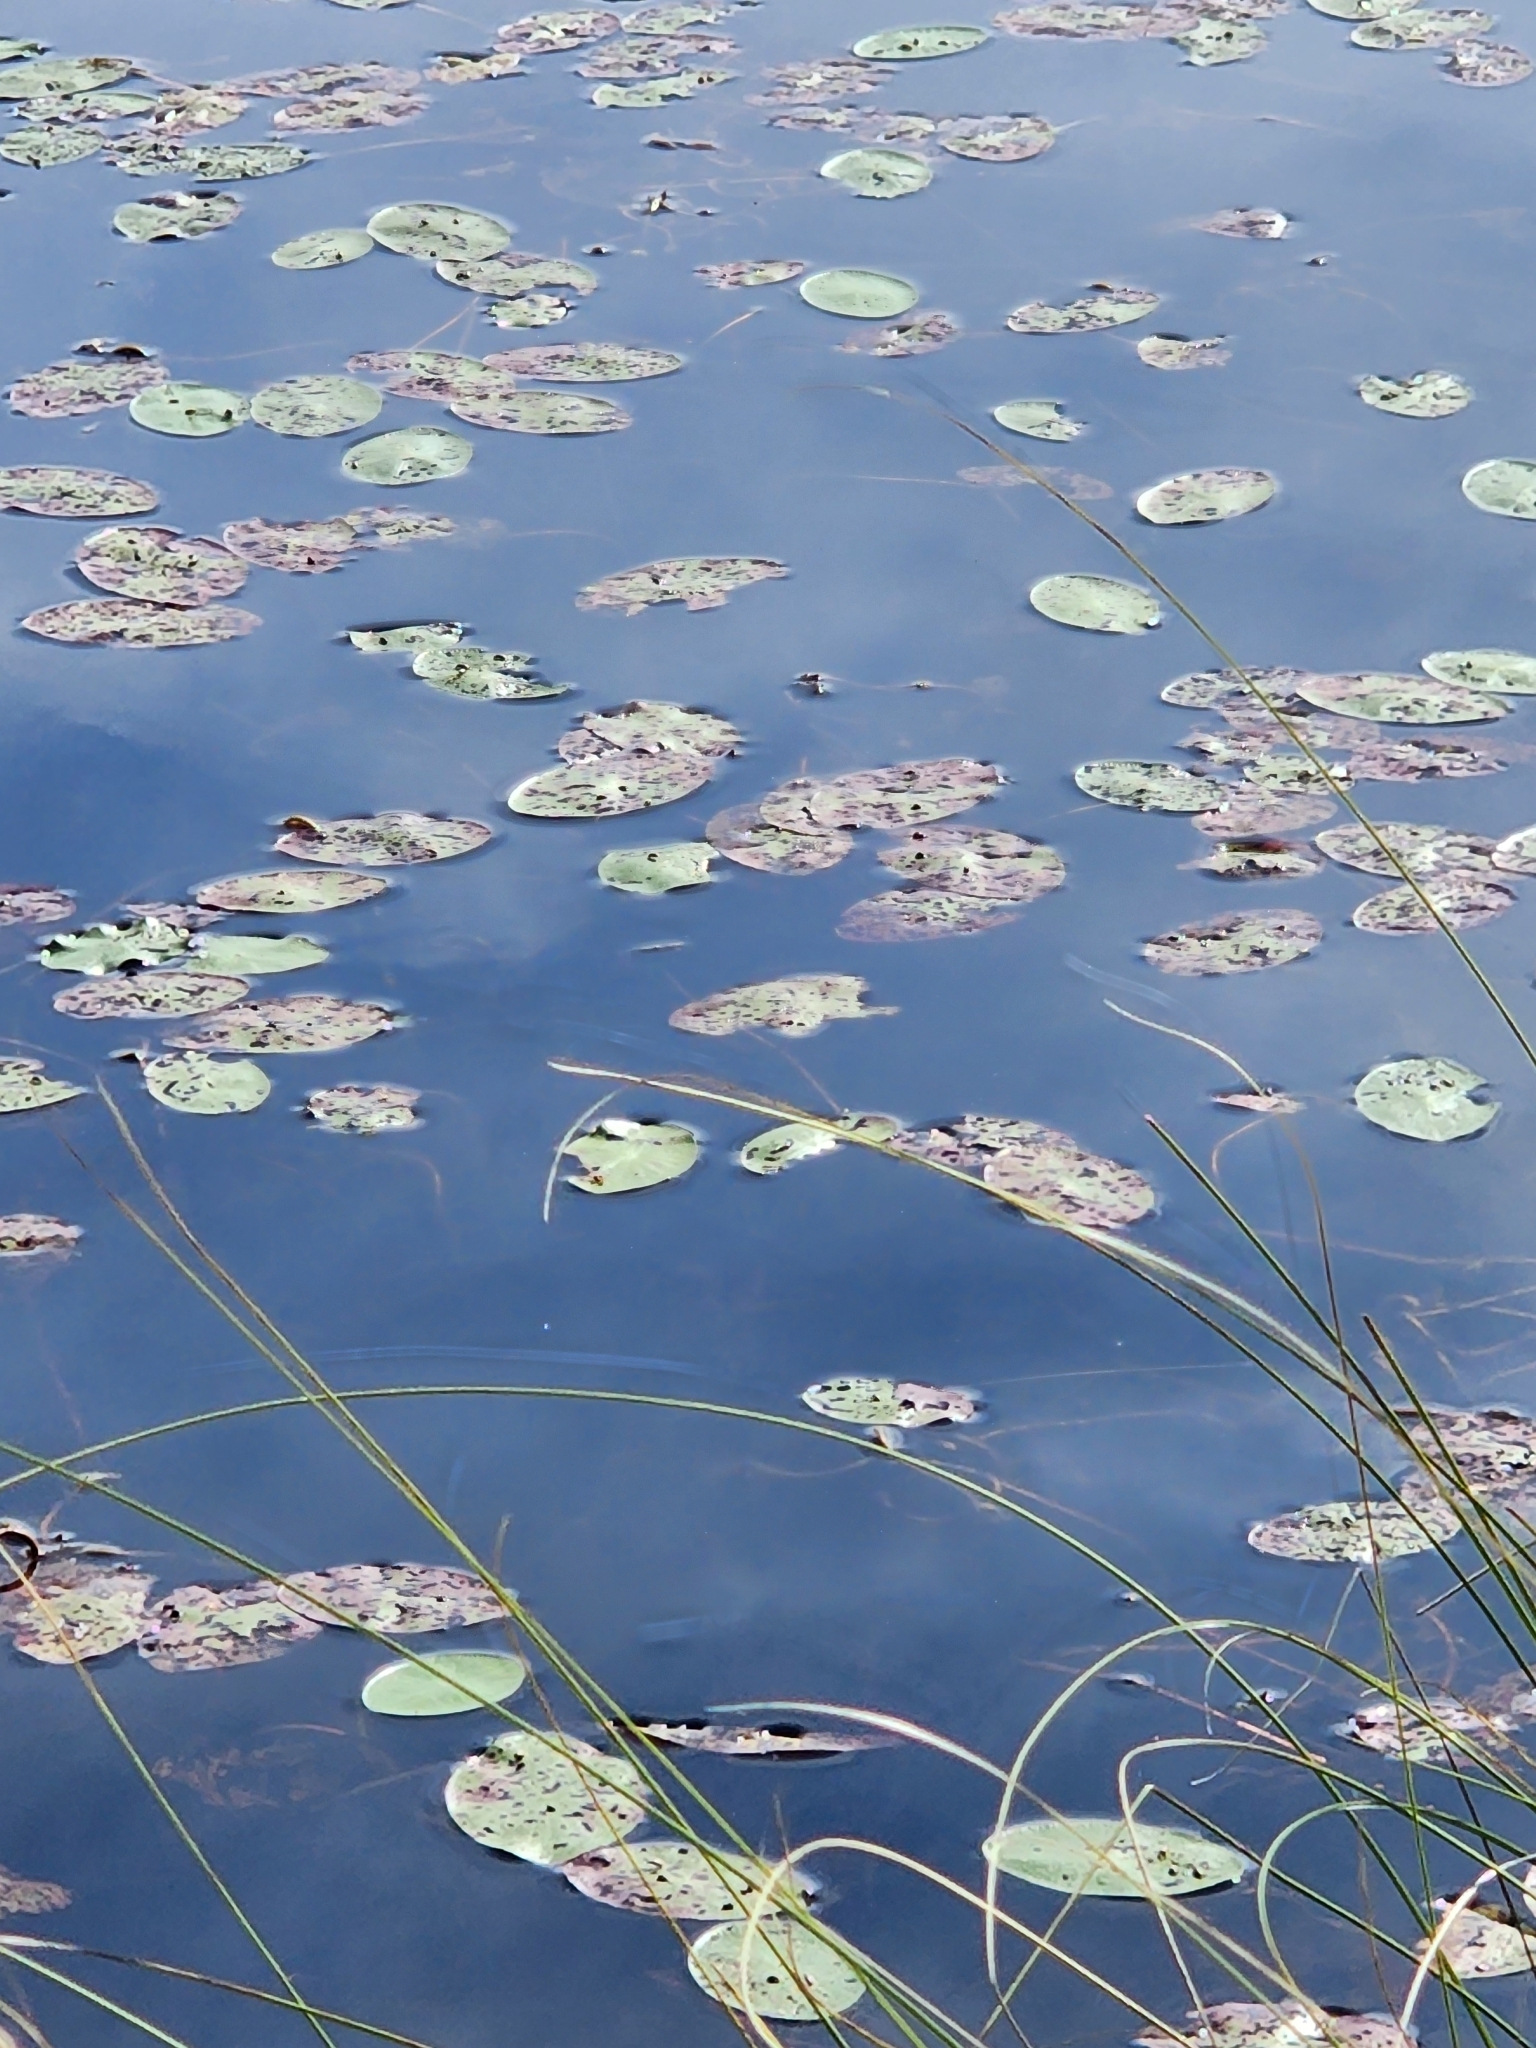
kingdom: Plantae
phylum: Tracheophyta
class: Magnoliopsida
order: Nymphaeales
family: Cabombaceae
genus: Brasenia
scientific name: Brasenia schreberi
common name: Water-shield
